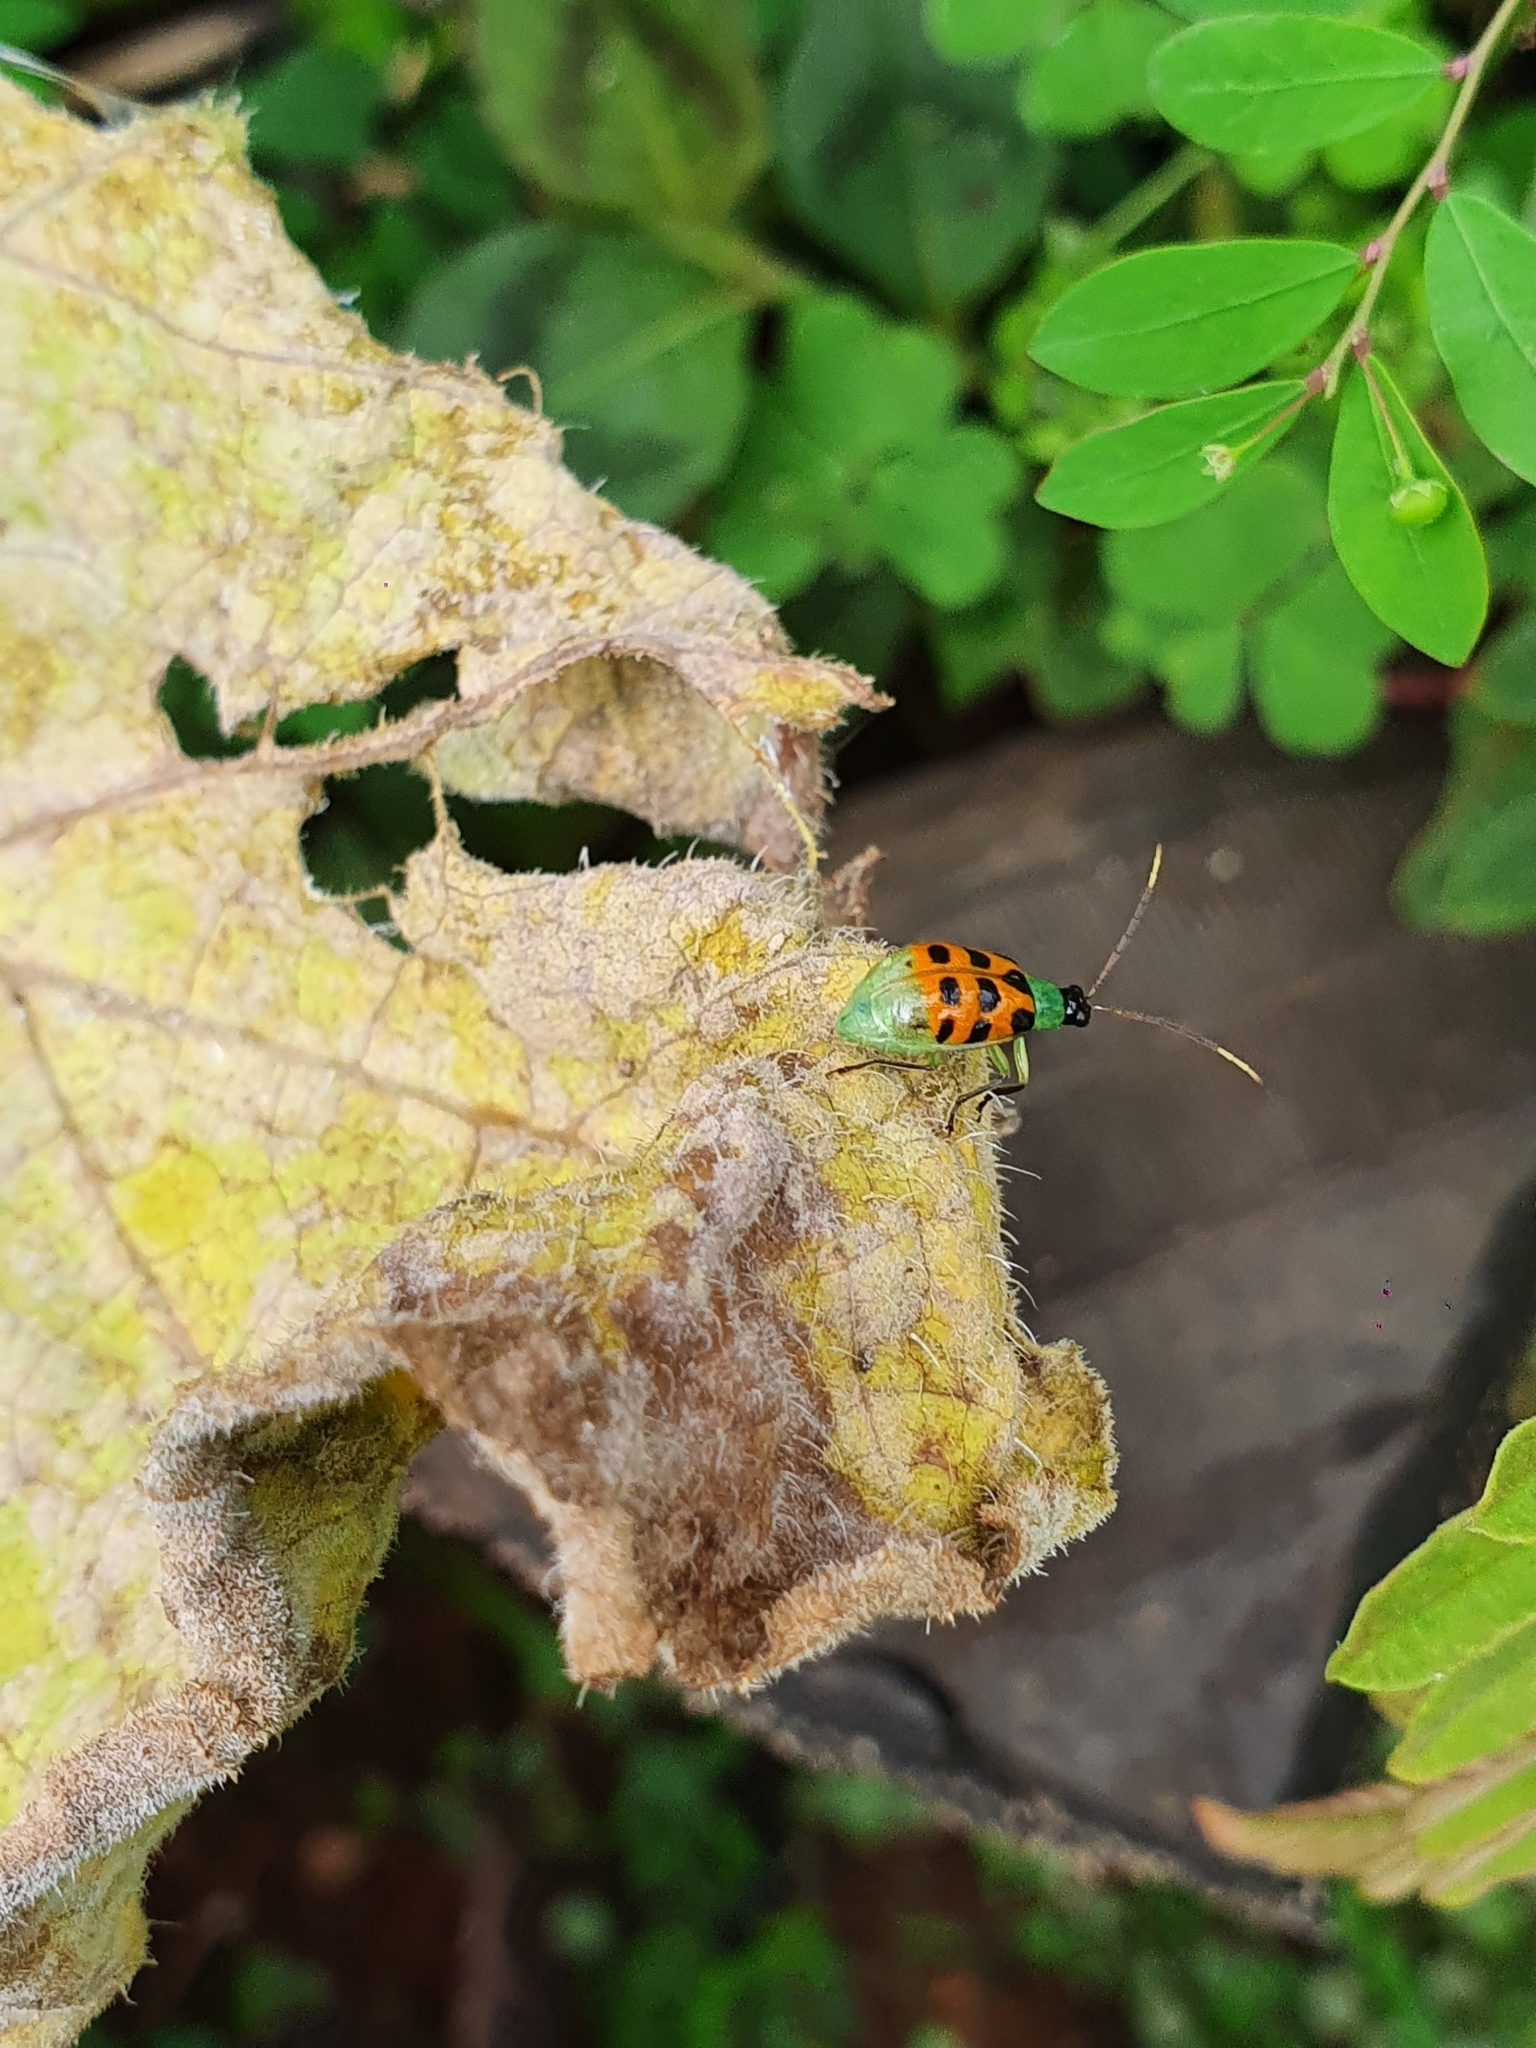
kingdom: Animalia
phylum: Arthropoda
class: Insecta
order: Coleoptera
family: Chrysomelidae
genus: Diabrotica
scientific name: Diabrotica limitata
